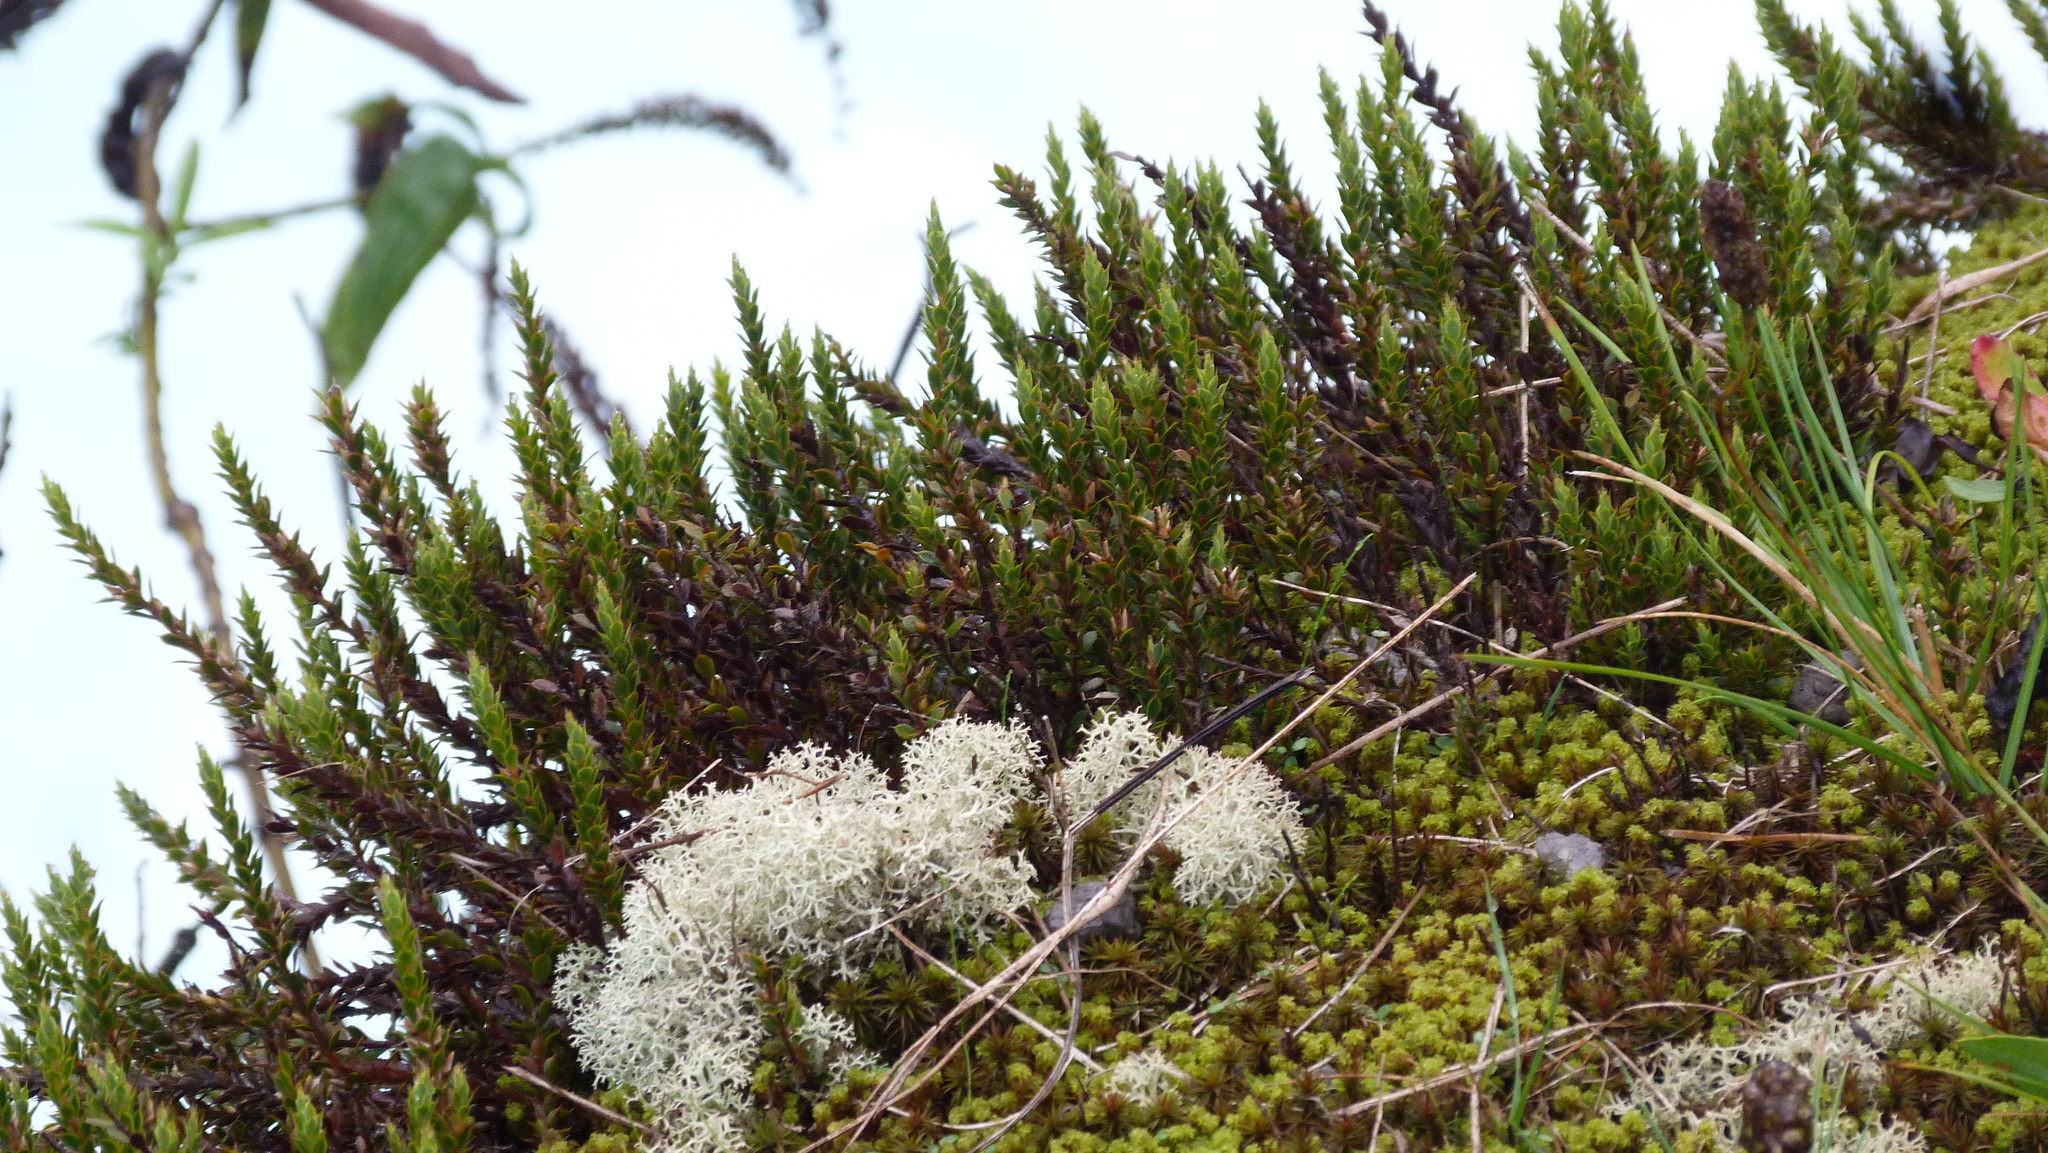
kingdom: Plantae
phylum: Tracheophyta
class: Magnoliopsida
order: Ericales
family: Ericaceae
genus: Styphelia
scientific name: Styphelia nesophila
